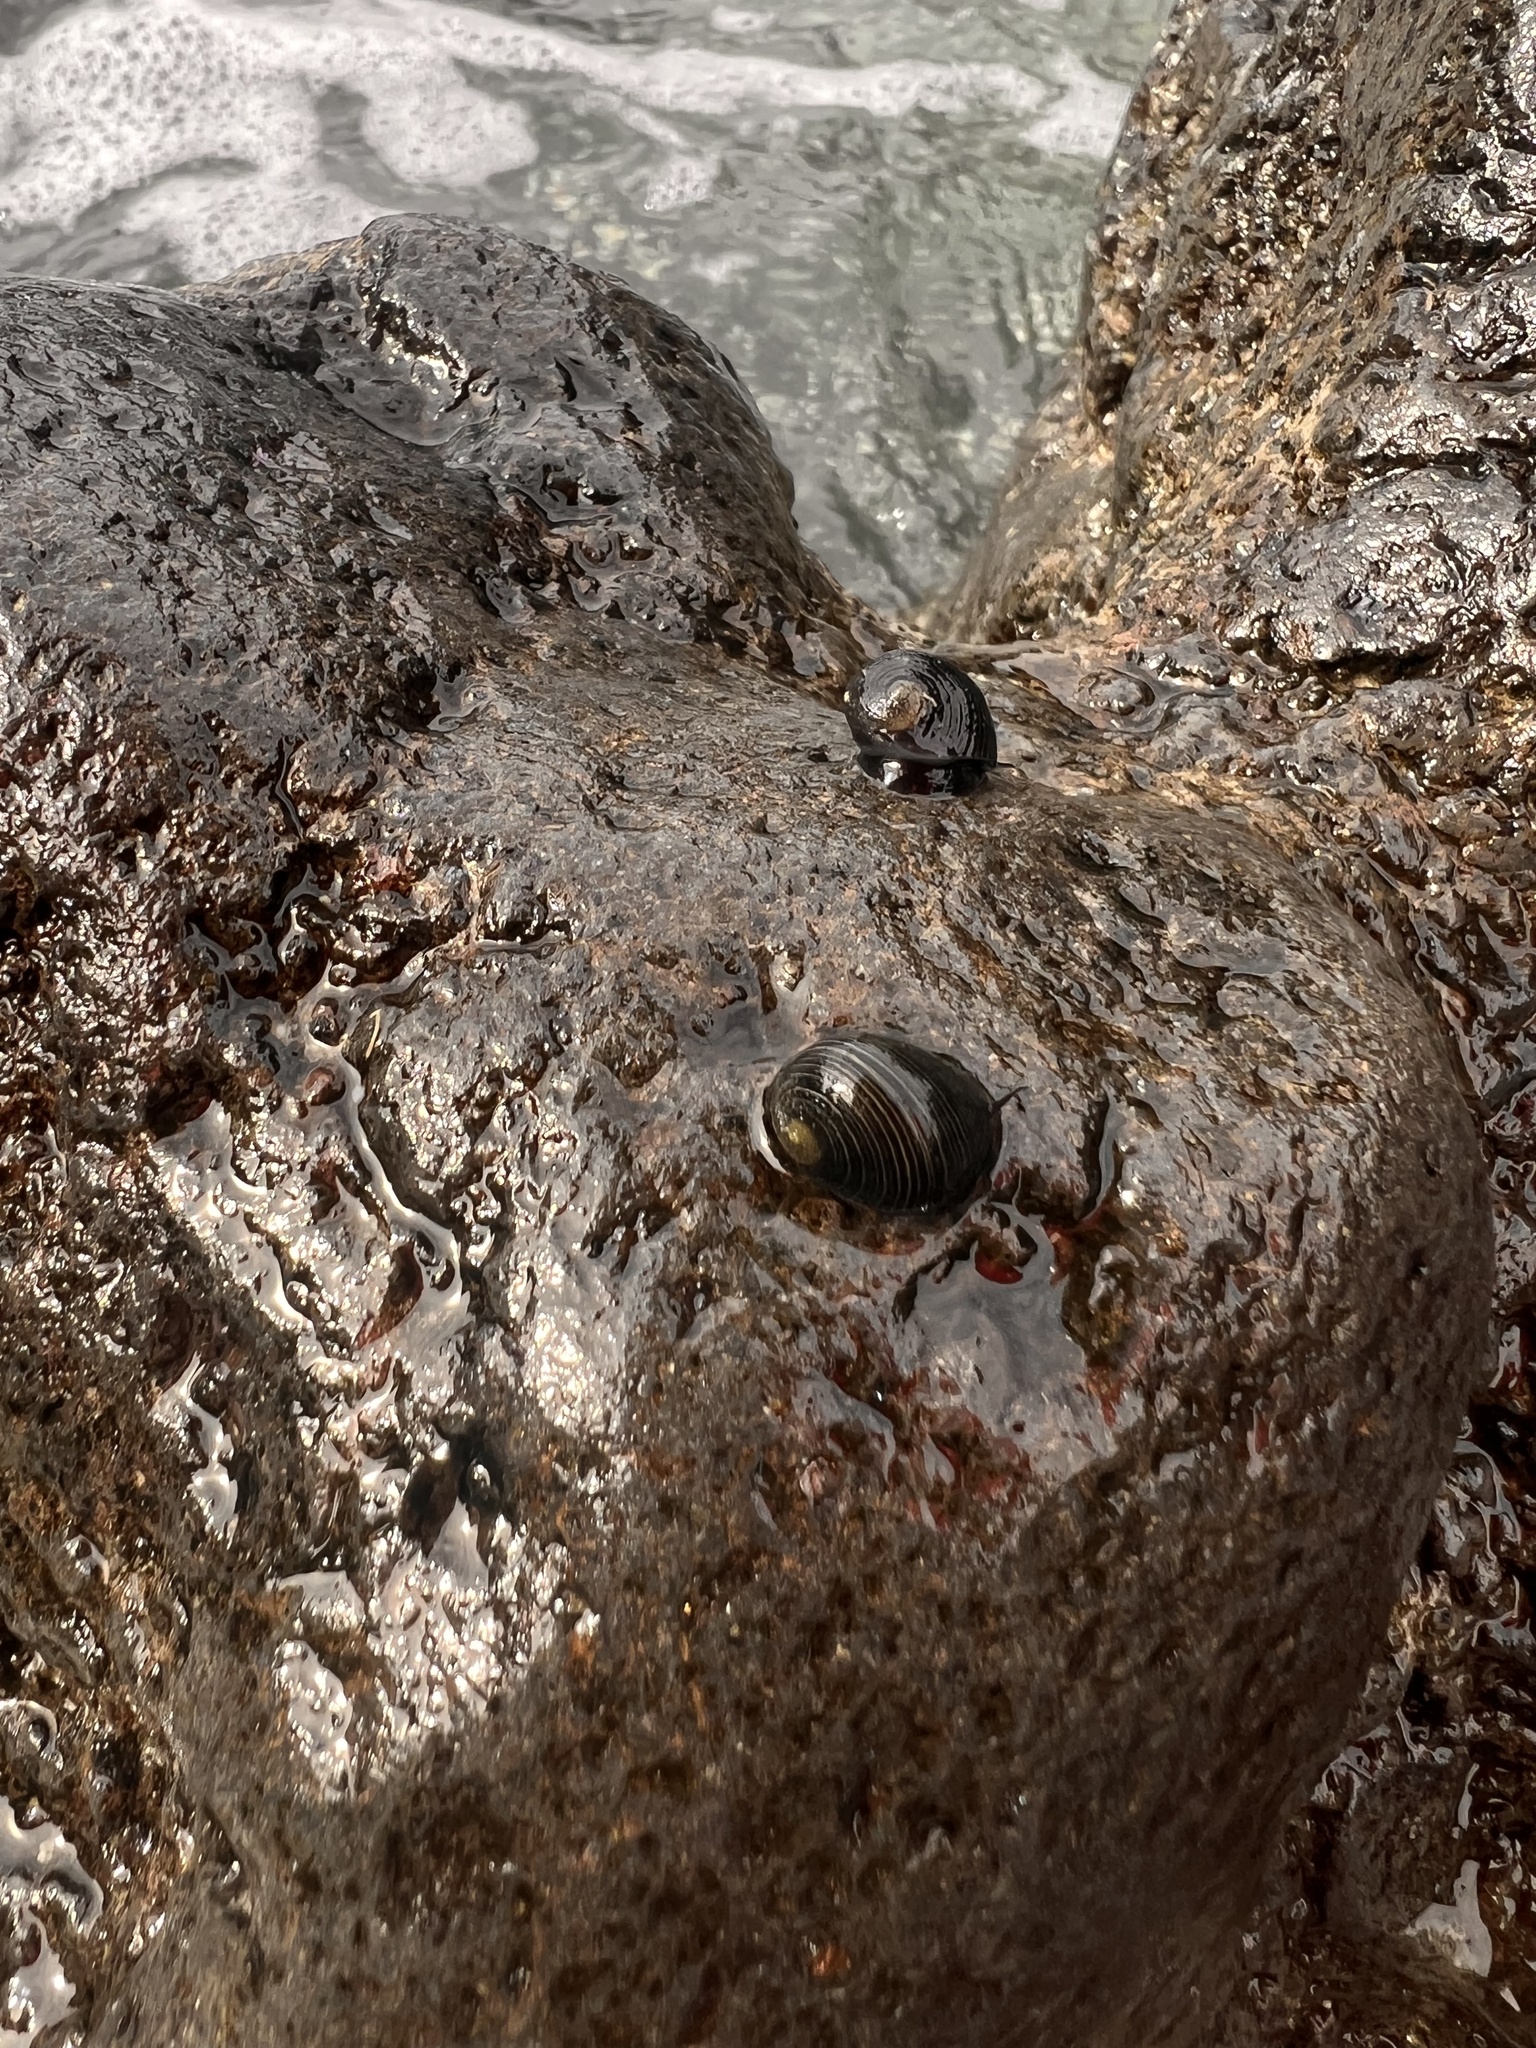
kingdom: Animalia
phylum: Mollusca
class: Gastropoda
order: Cycloneritida
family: Neritidae
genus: Nerita
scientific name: Nerita picea
